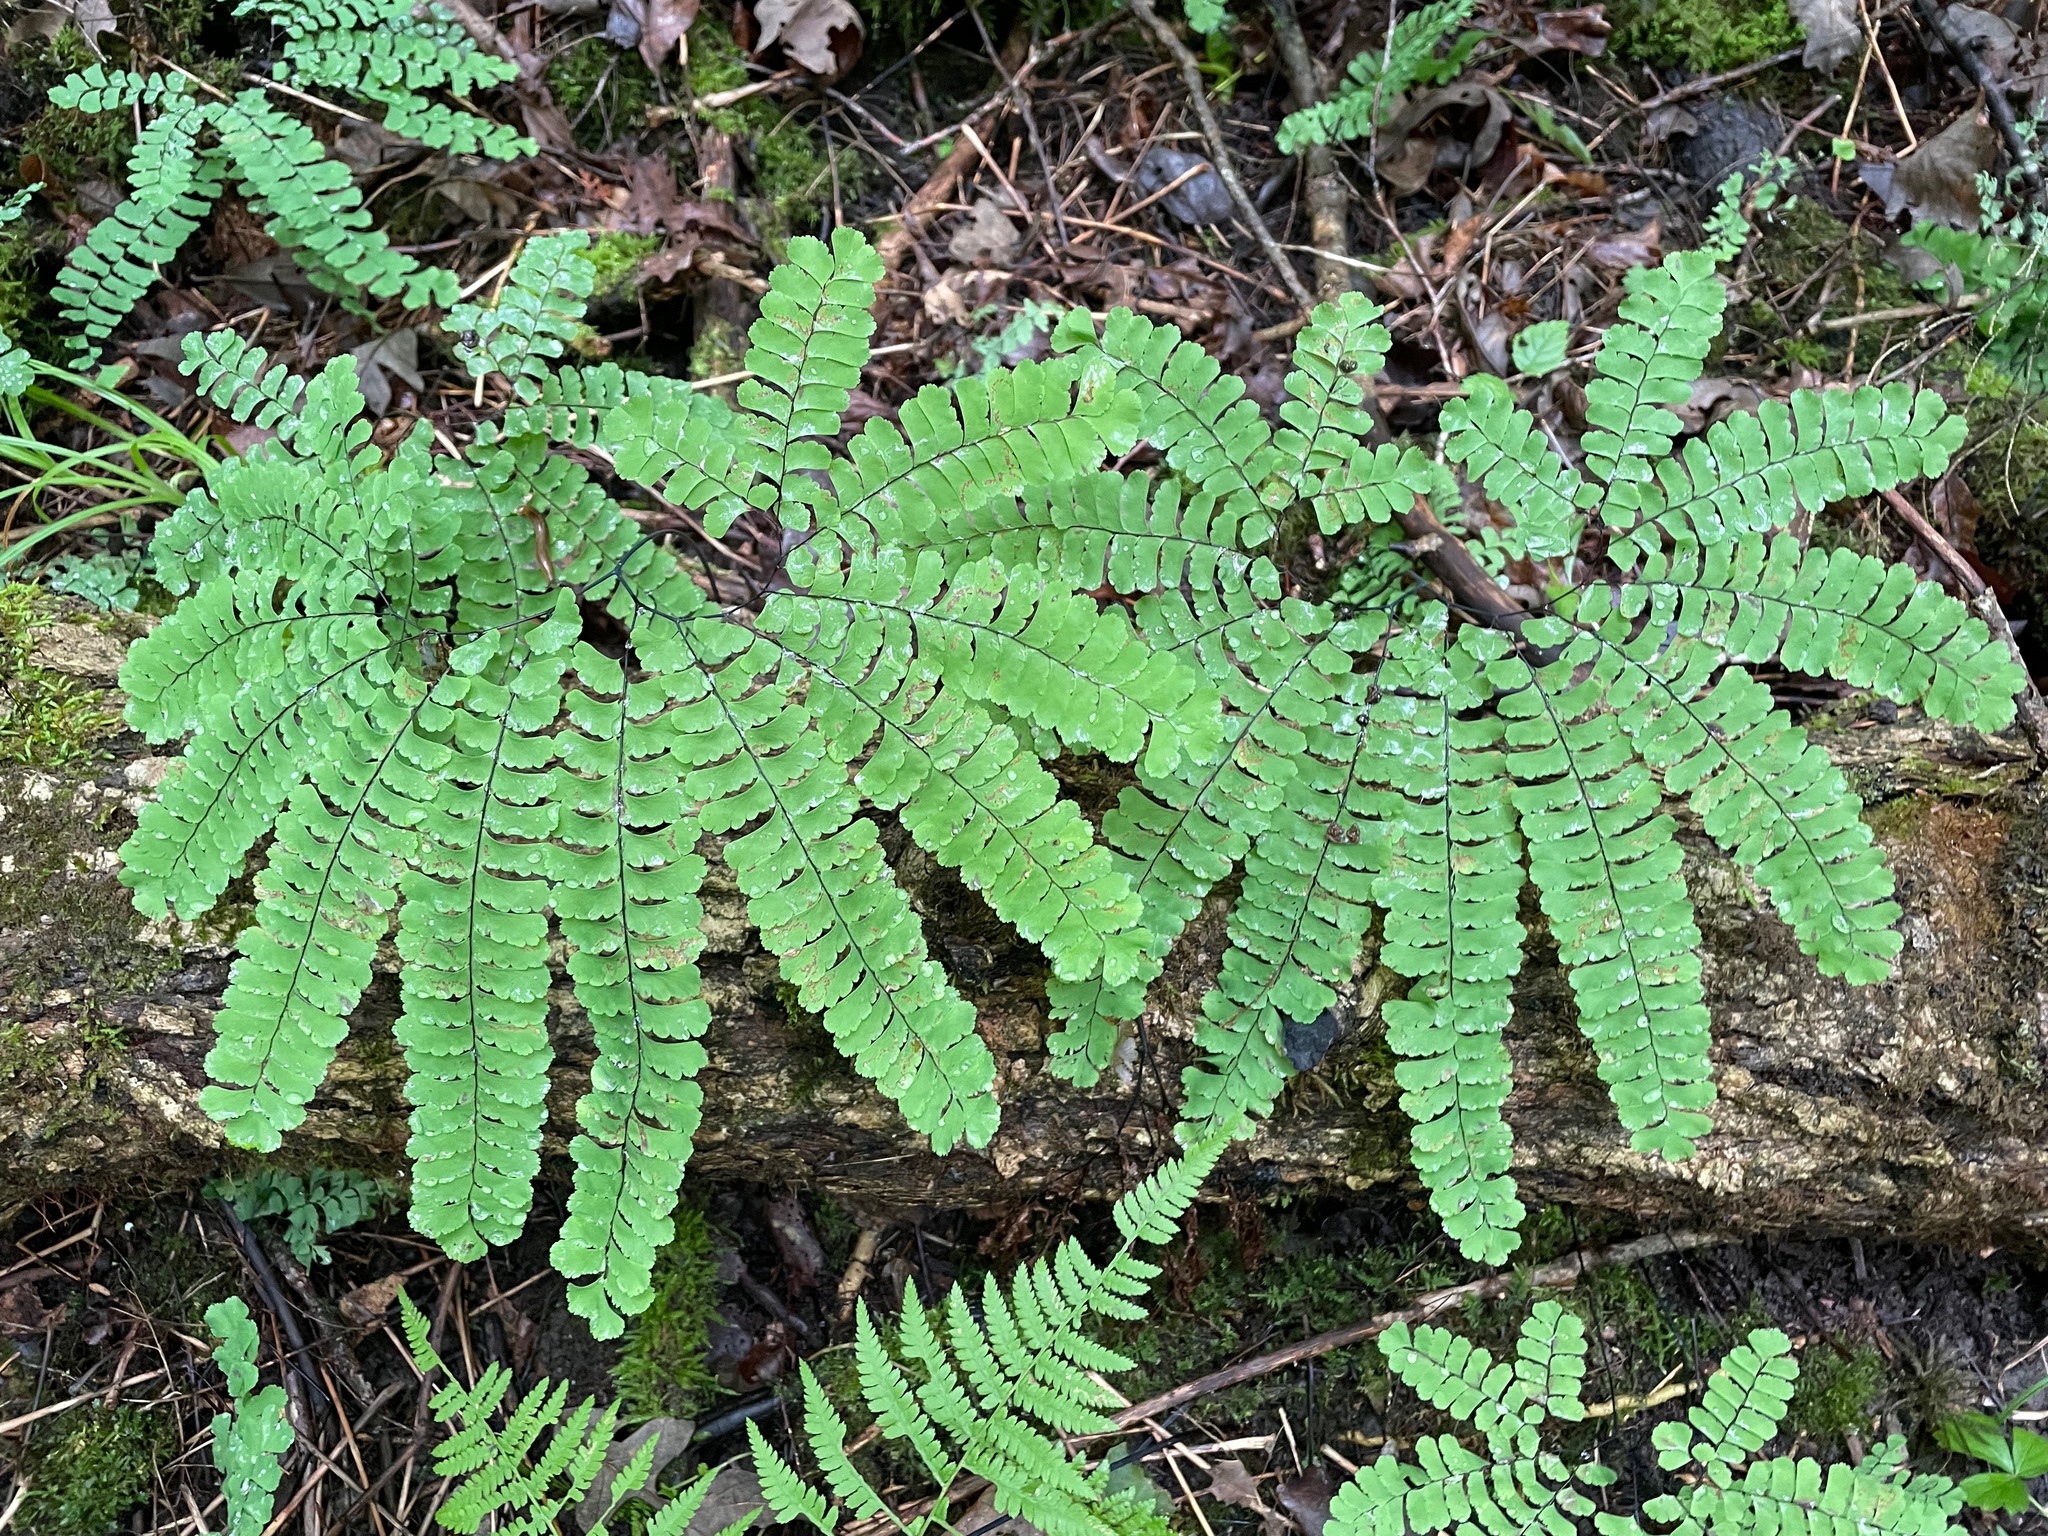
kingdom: Plantae
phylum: Tracheophyta
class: Polypodiopsida
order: Polypodiales
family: Pteridaceae
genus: Adiantum
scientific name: Adiantum pedatum
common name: Five-finger fern
